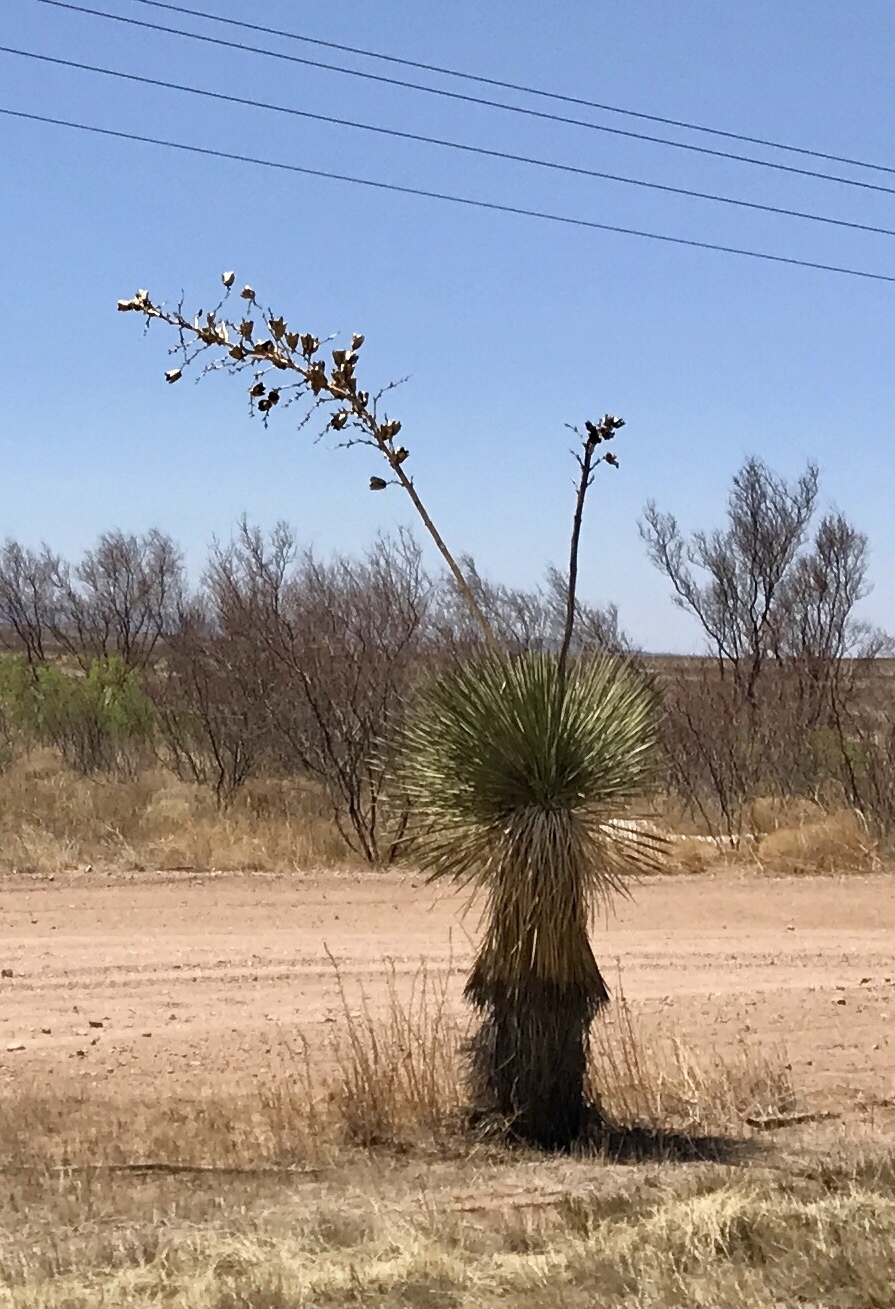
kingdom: Plantae
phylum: Tracheophyta
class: Liliopsida
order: Asparagales
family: Asparagaceae
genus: Yucca
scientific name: Yucca elata
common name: Palmella
